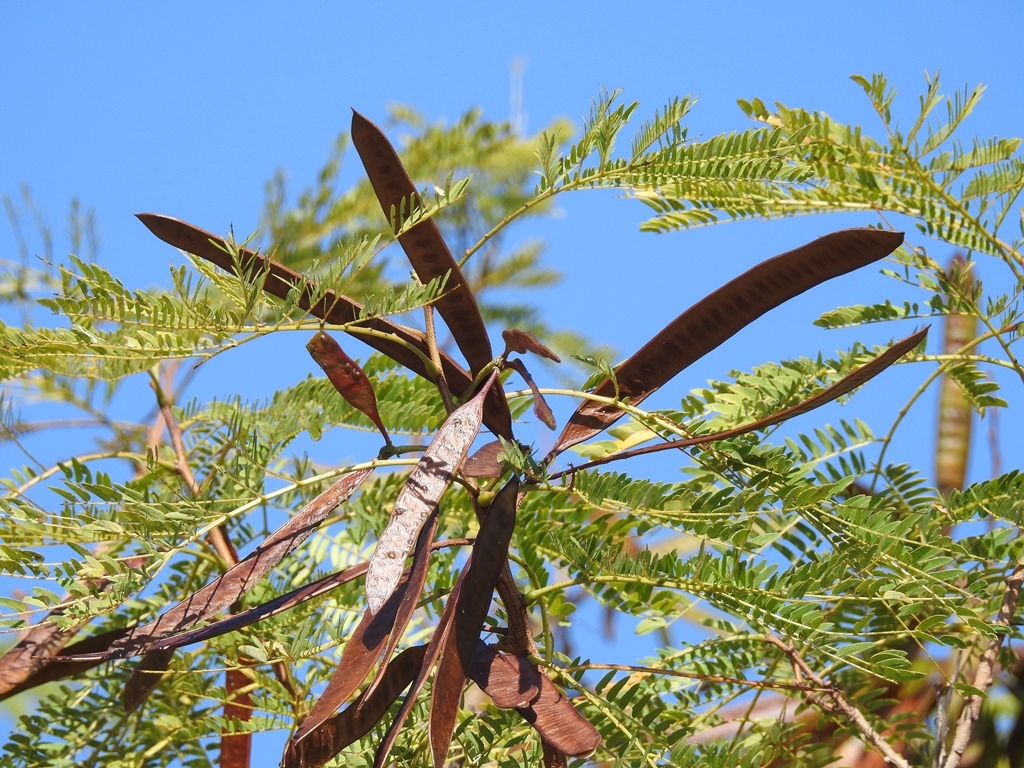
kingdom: Plantae
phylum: Tracheophyta
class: Magnoliopsida
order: Fabales
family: Fabaceae
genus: Leucaena
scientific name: Leucaena diversifolia
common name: Red leucaena
